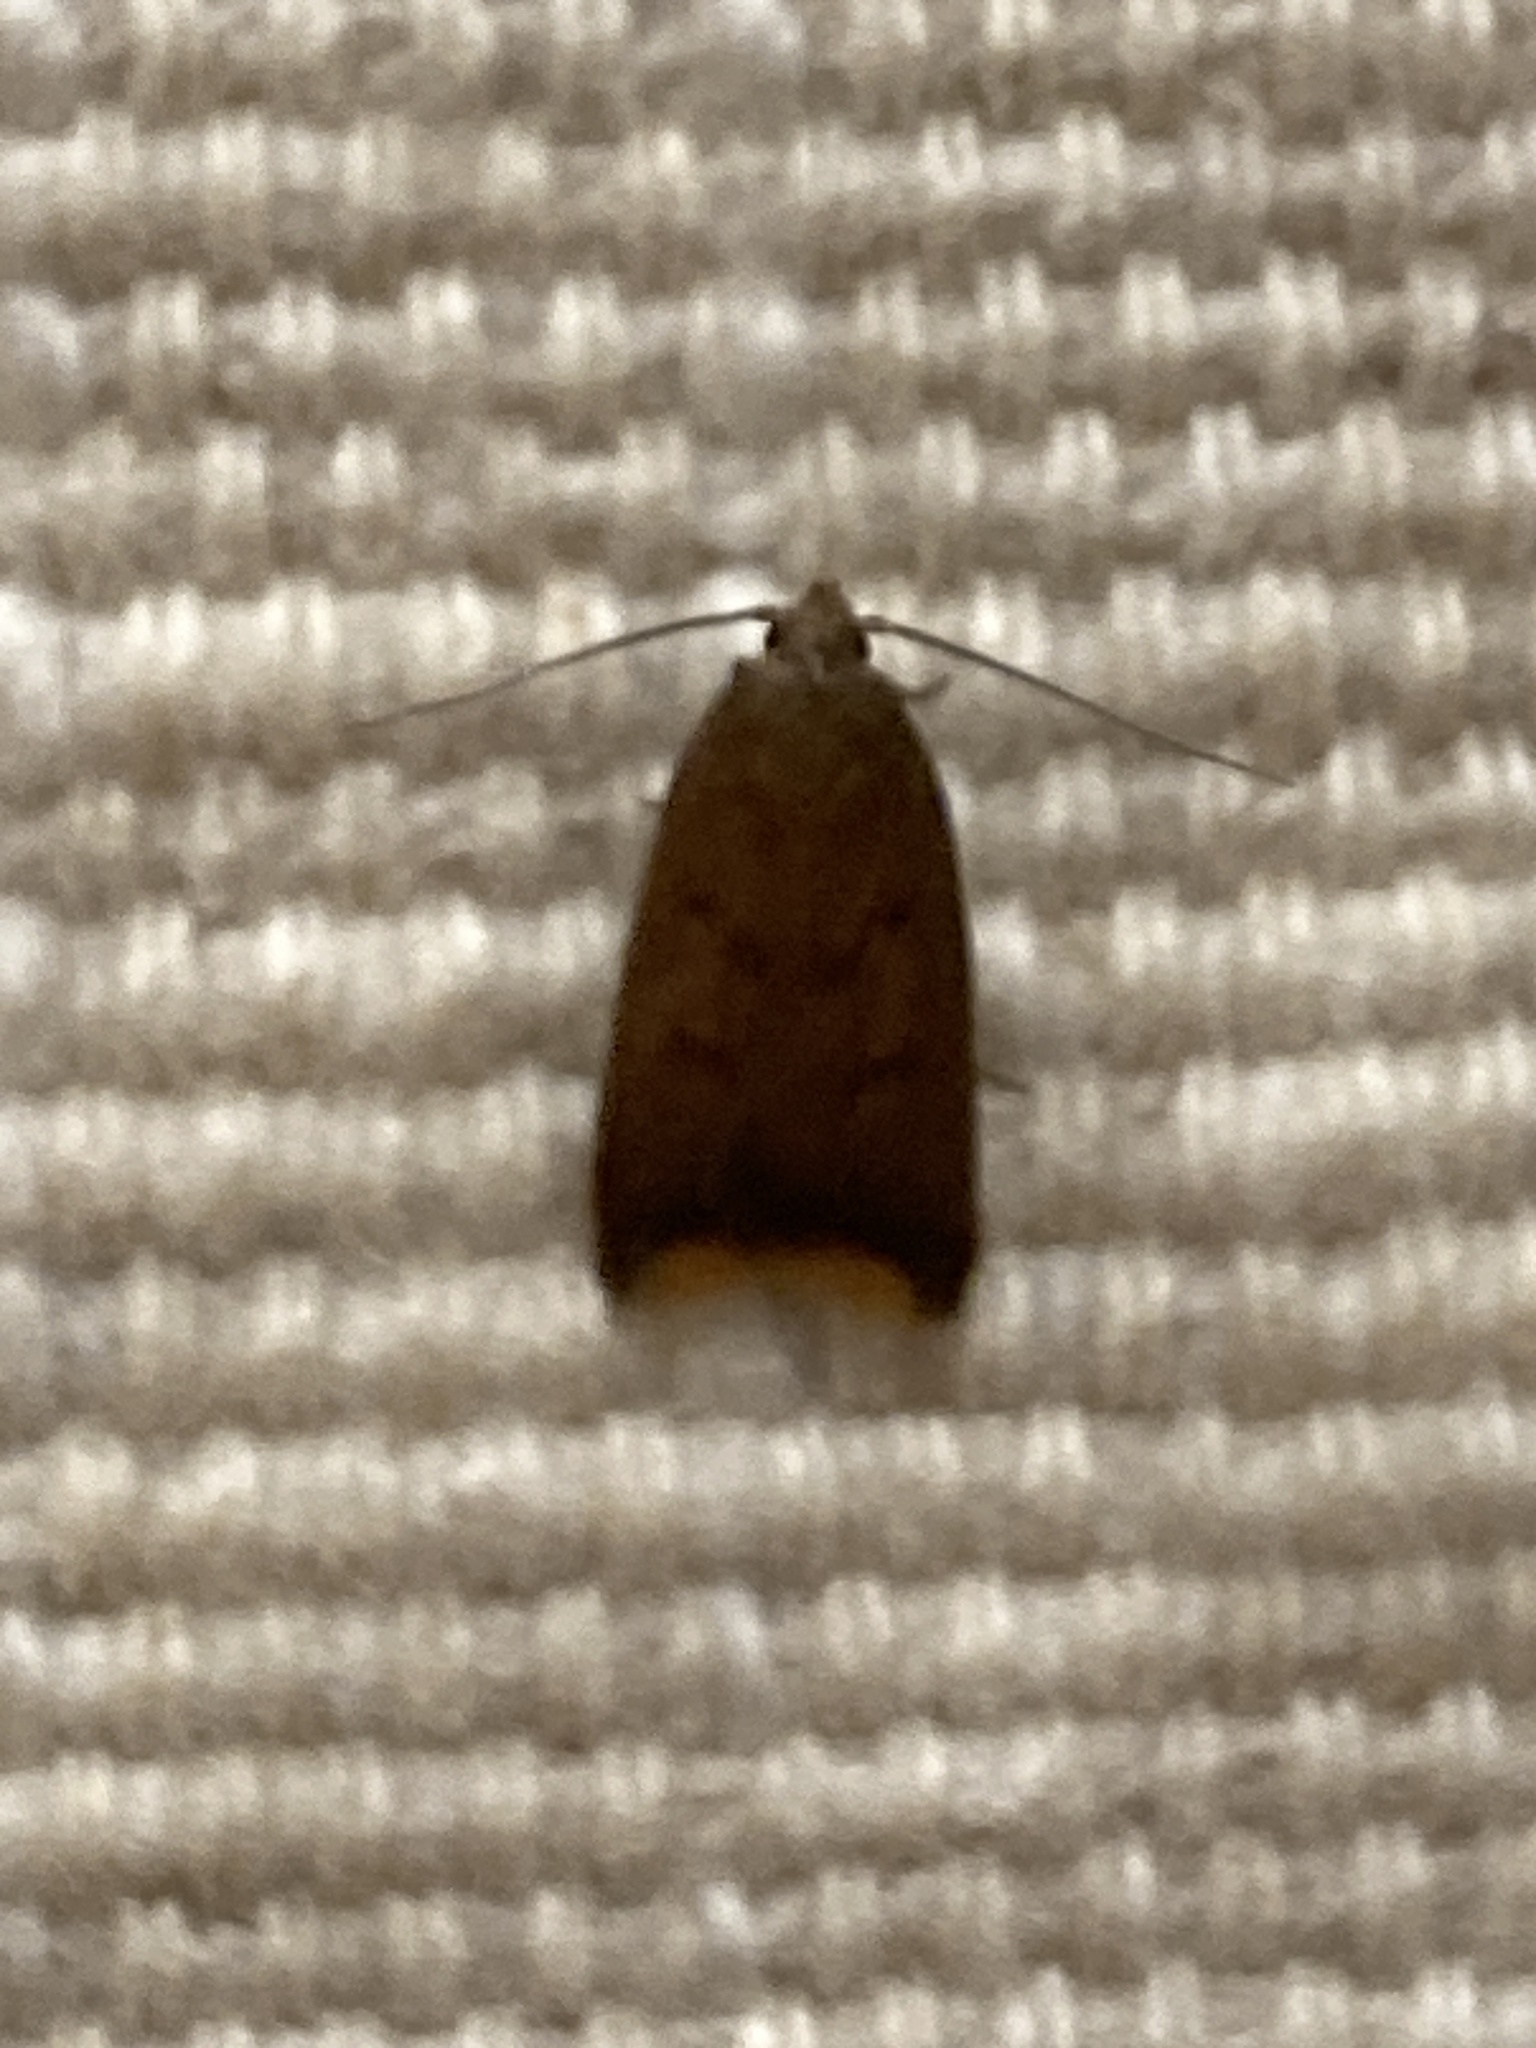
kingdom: Animalia
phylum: Arthropoda
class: Insecta
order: Lepidoptera
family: Oecophoridae
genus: Tachystola
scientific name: Tachystola acroxantha
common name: Ruddy streak
